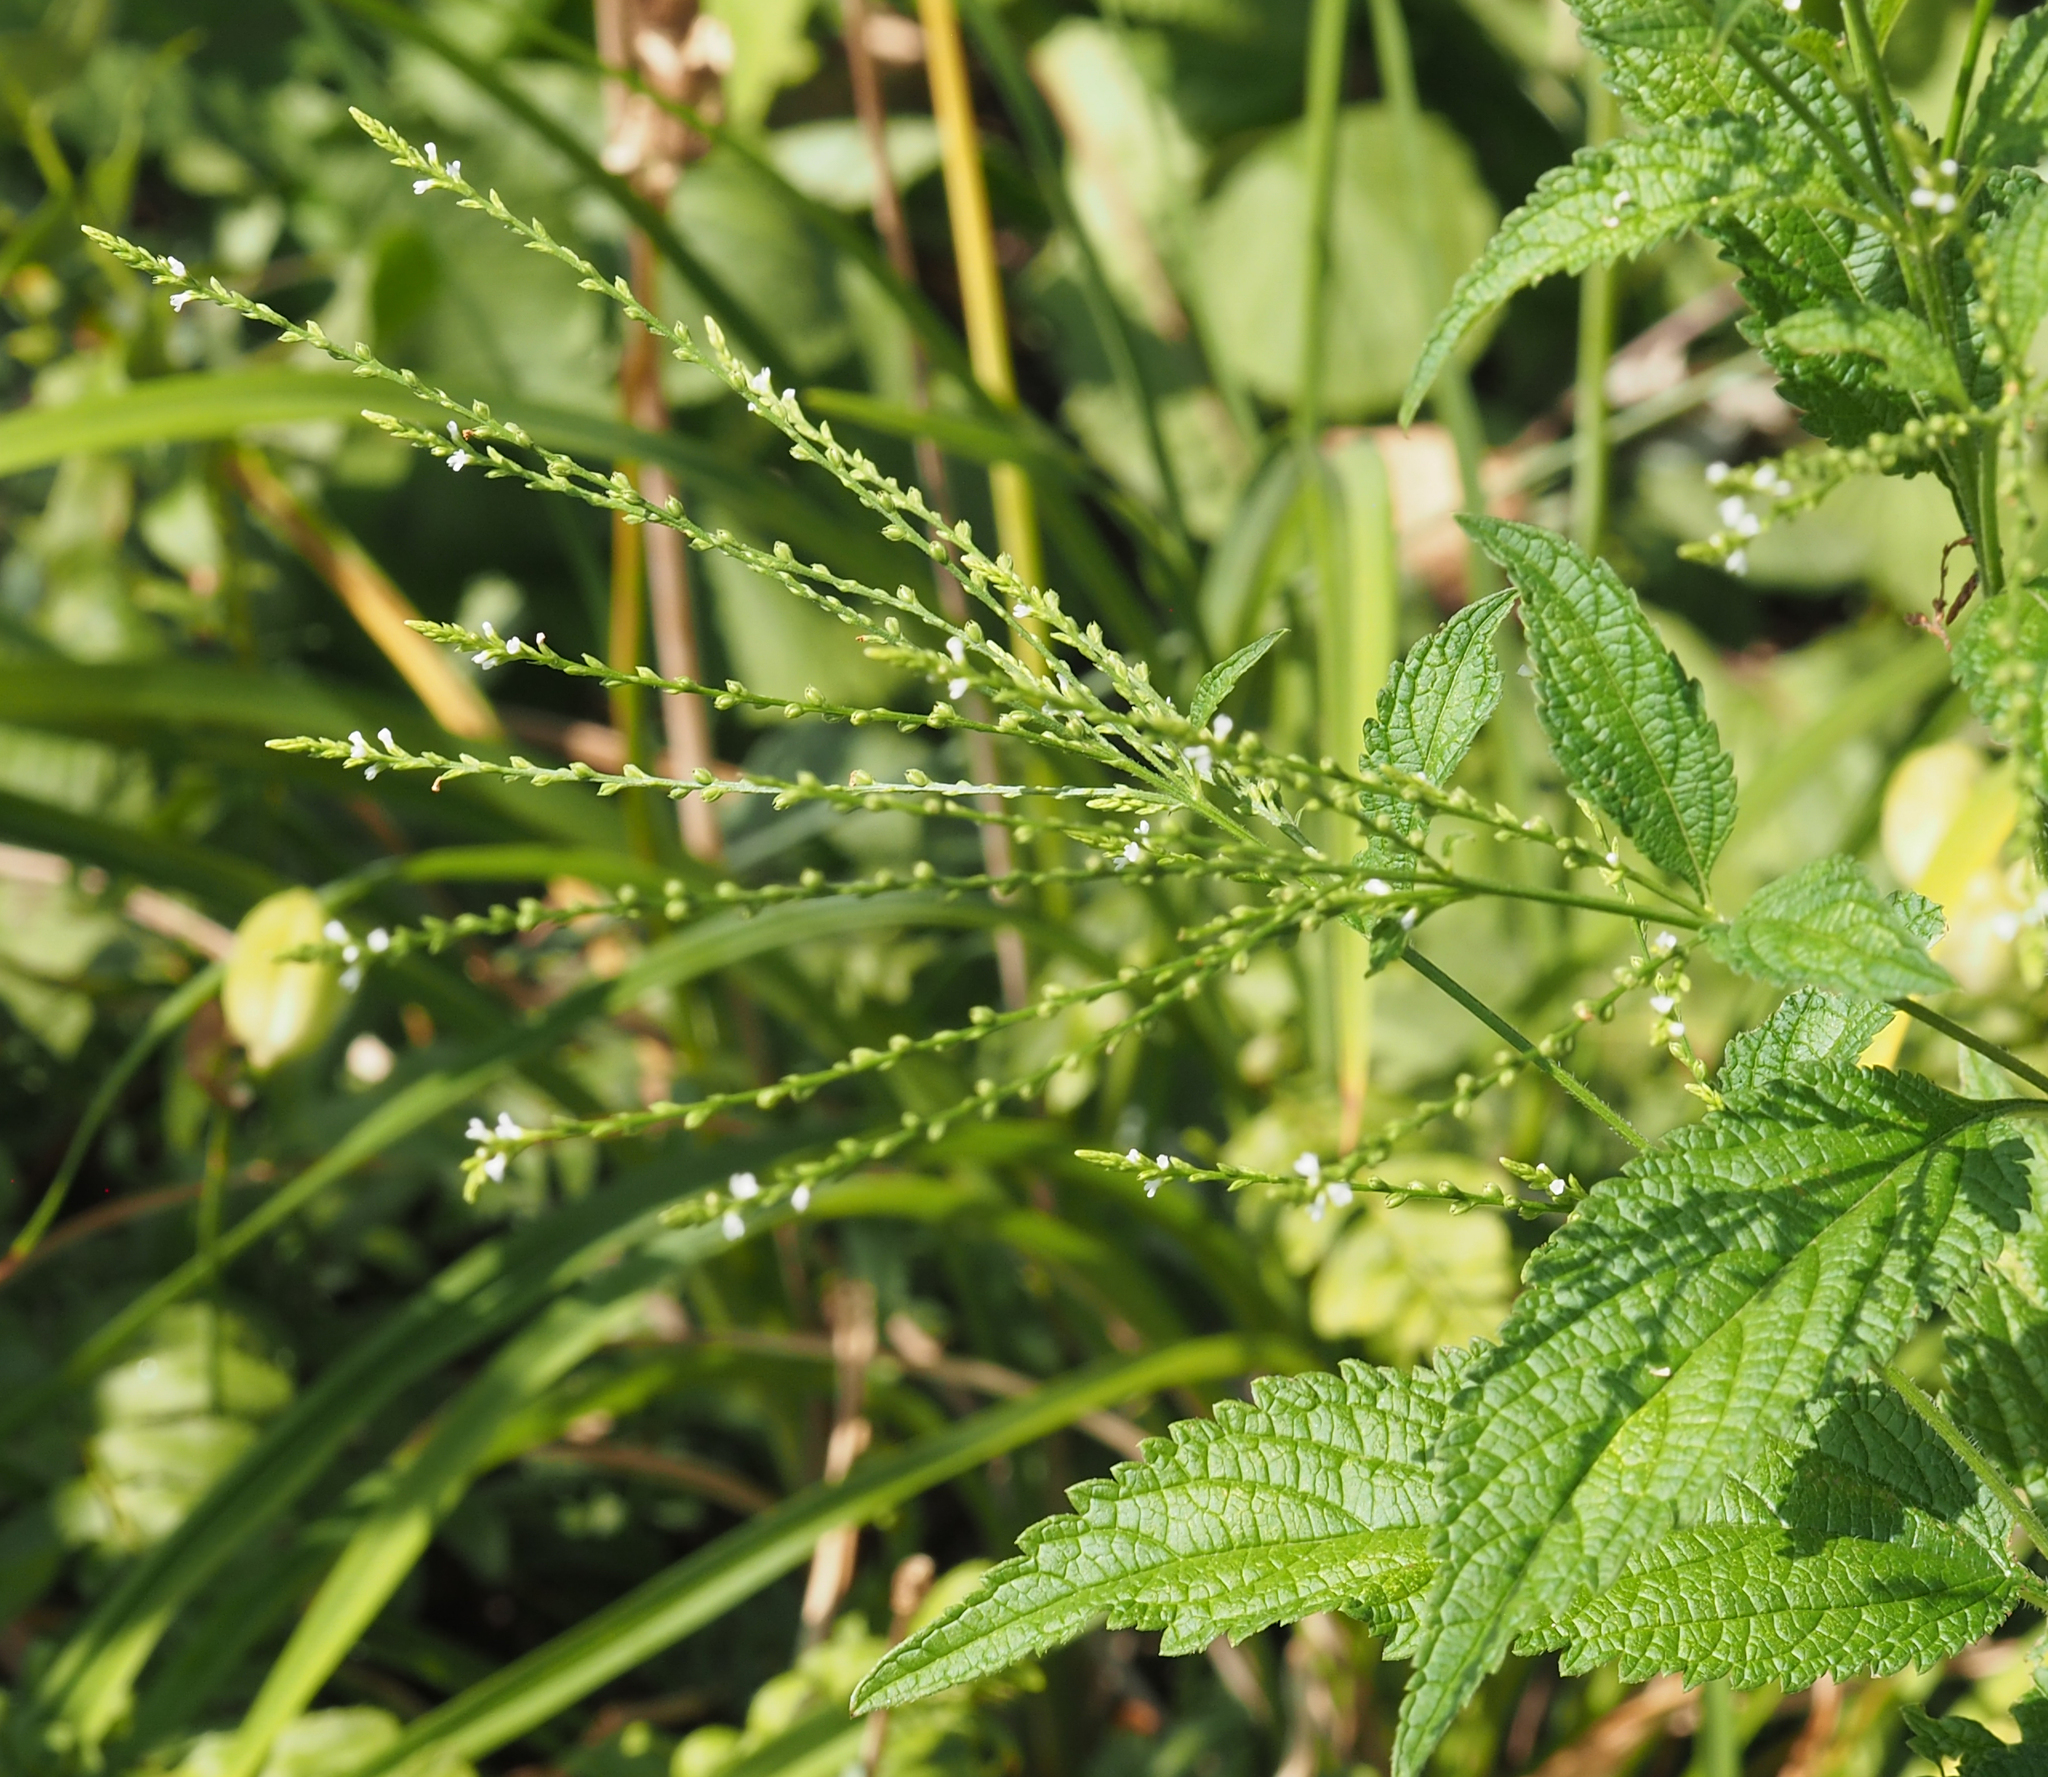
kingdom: Plantae
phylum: Tracheophyta
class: Magnoliopsida
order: Lamiales
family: Verbenaceae
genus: Verbena
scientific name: Verbena urticifolia
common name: Nettle-leaved vervain
